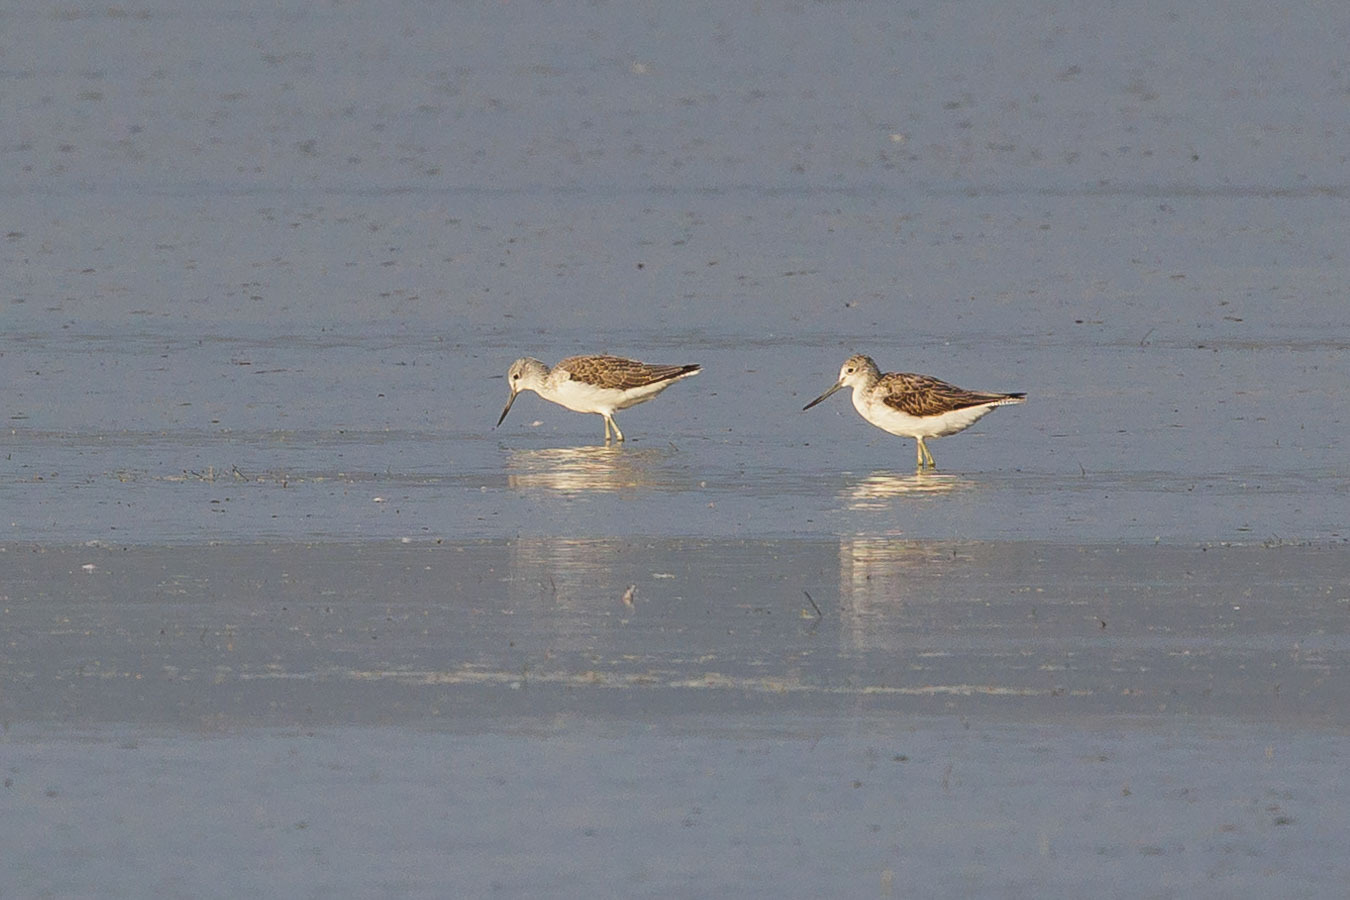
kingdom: Animalia
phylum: Chordata
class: Aves
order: Charadriiformes
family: Scolopacidae
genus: Tringa
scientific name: Tringa nebularia
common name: Common greenshank
